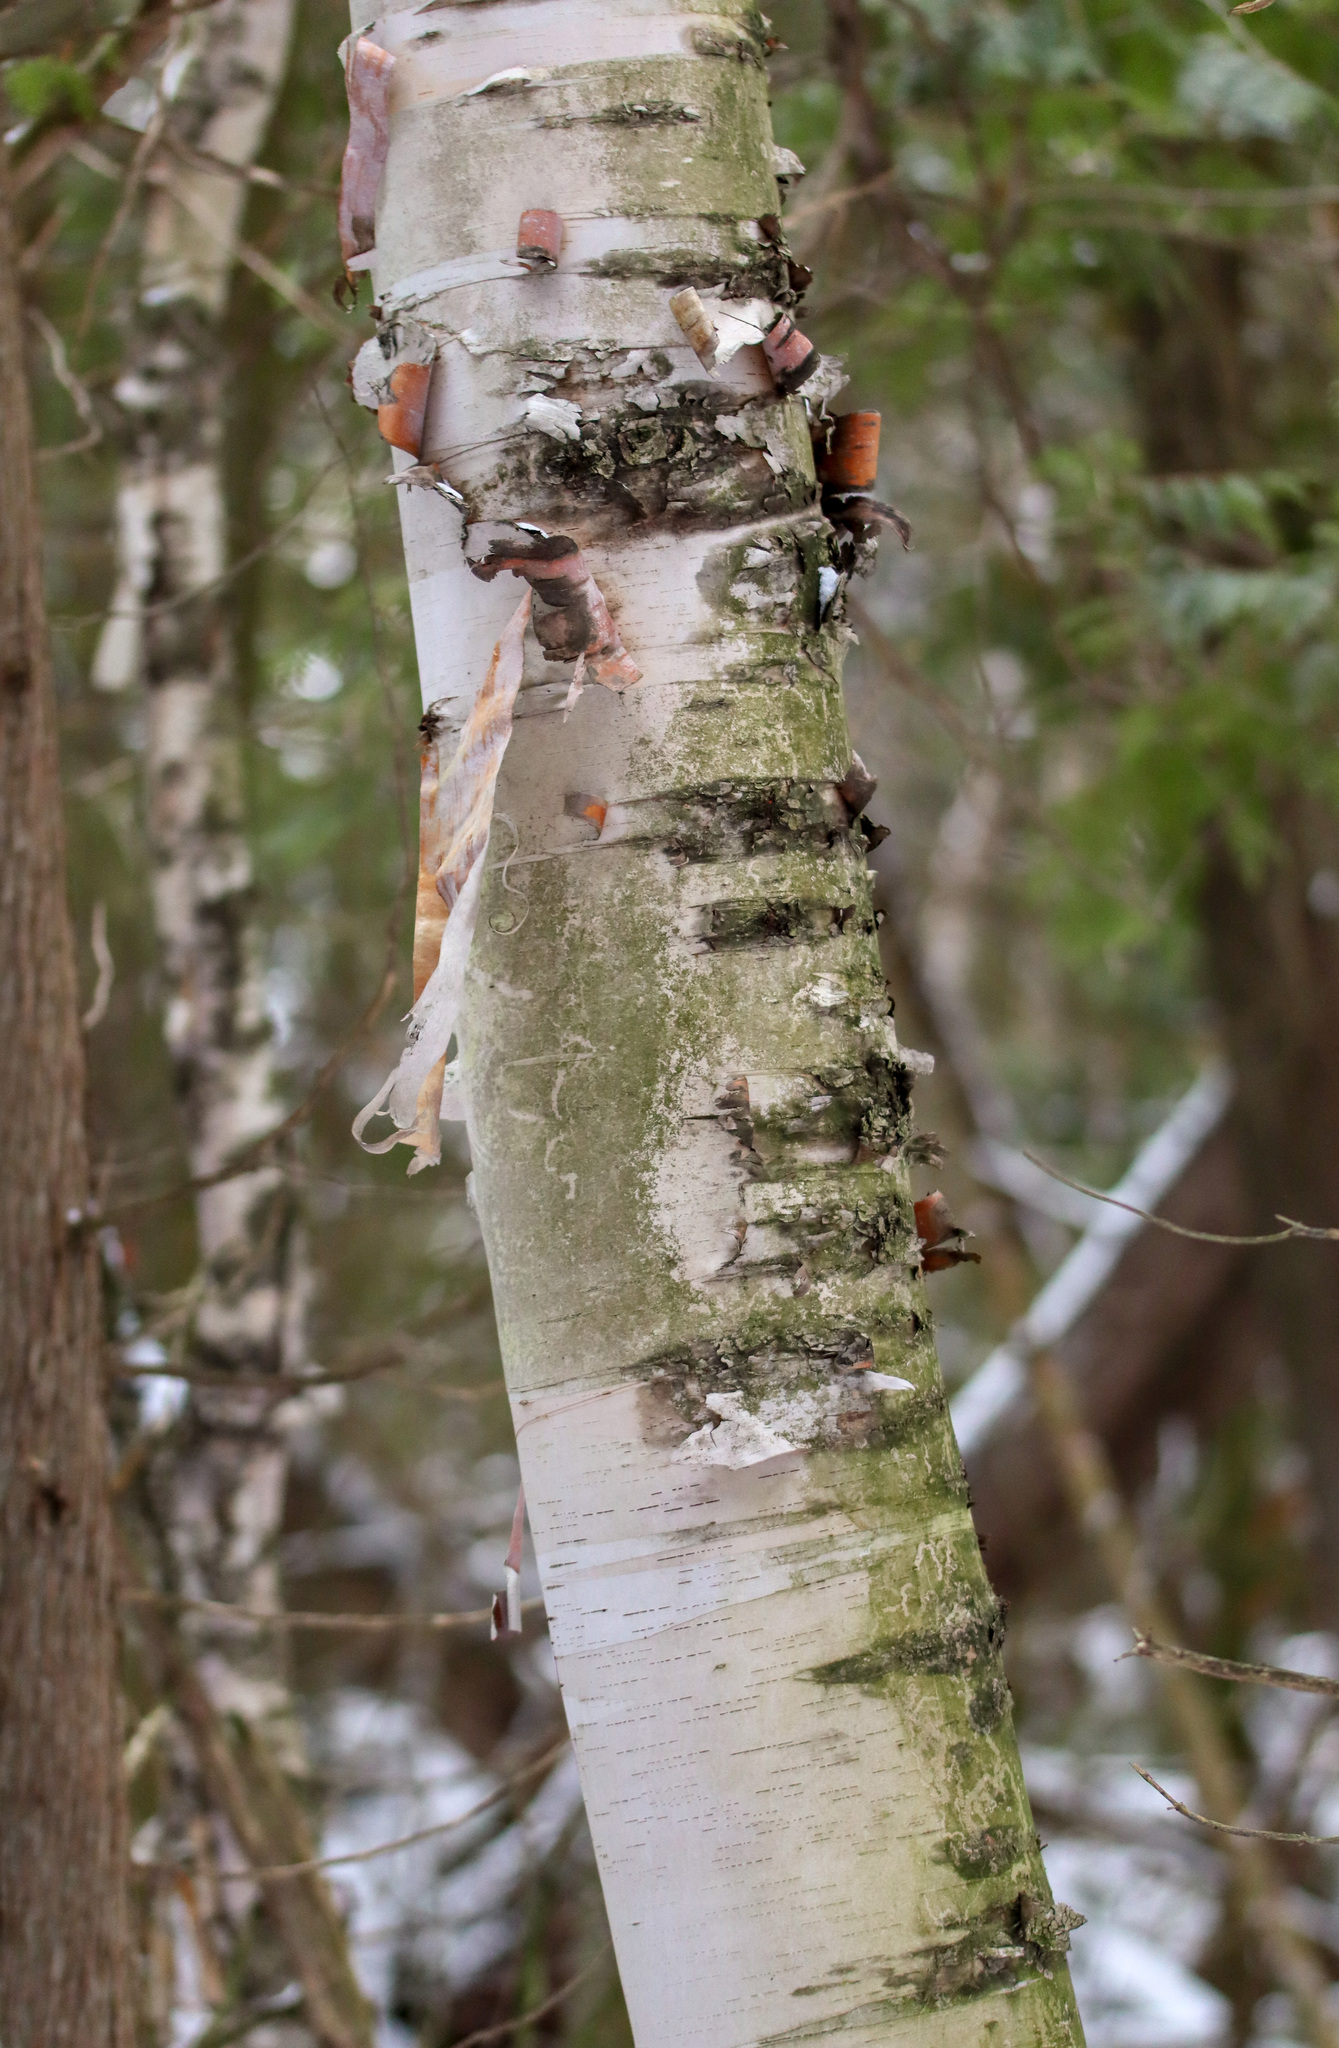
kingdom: Plantae
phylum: Tracheophyta
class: Magnoliopsida
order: Fagales
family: Betulaceae
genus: Betula
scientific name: Betula papyrifera
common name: Paper birch
